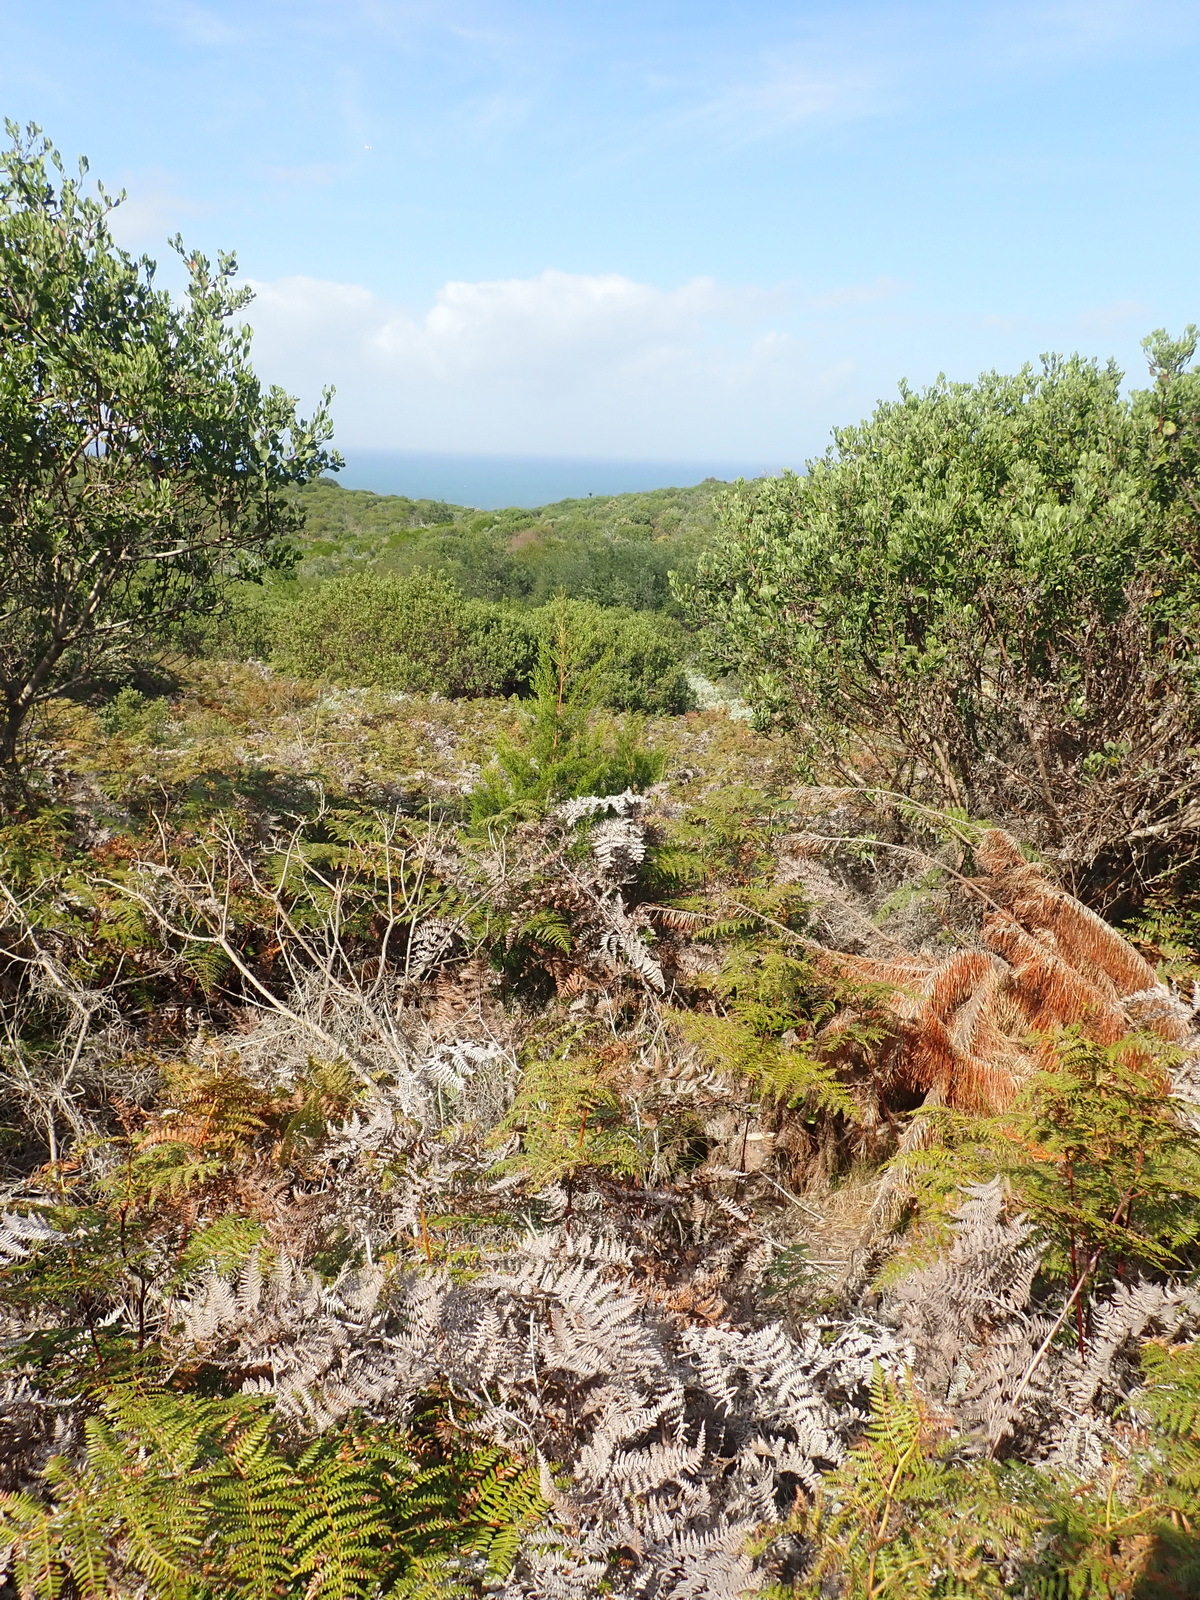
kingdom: Plantae
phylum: Tracheophyta
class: Polypodiopsida
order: Polypodiales
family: Dennstaedtiaceae
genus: Pteridium
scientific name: Pteridium aquilinum
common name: Bracken
